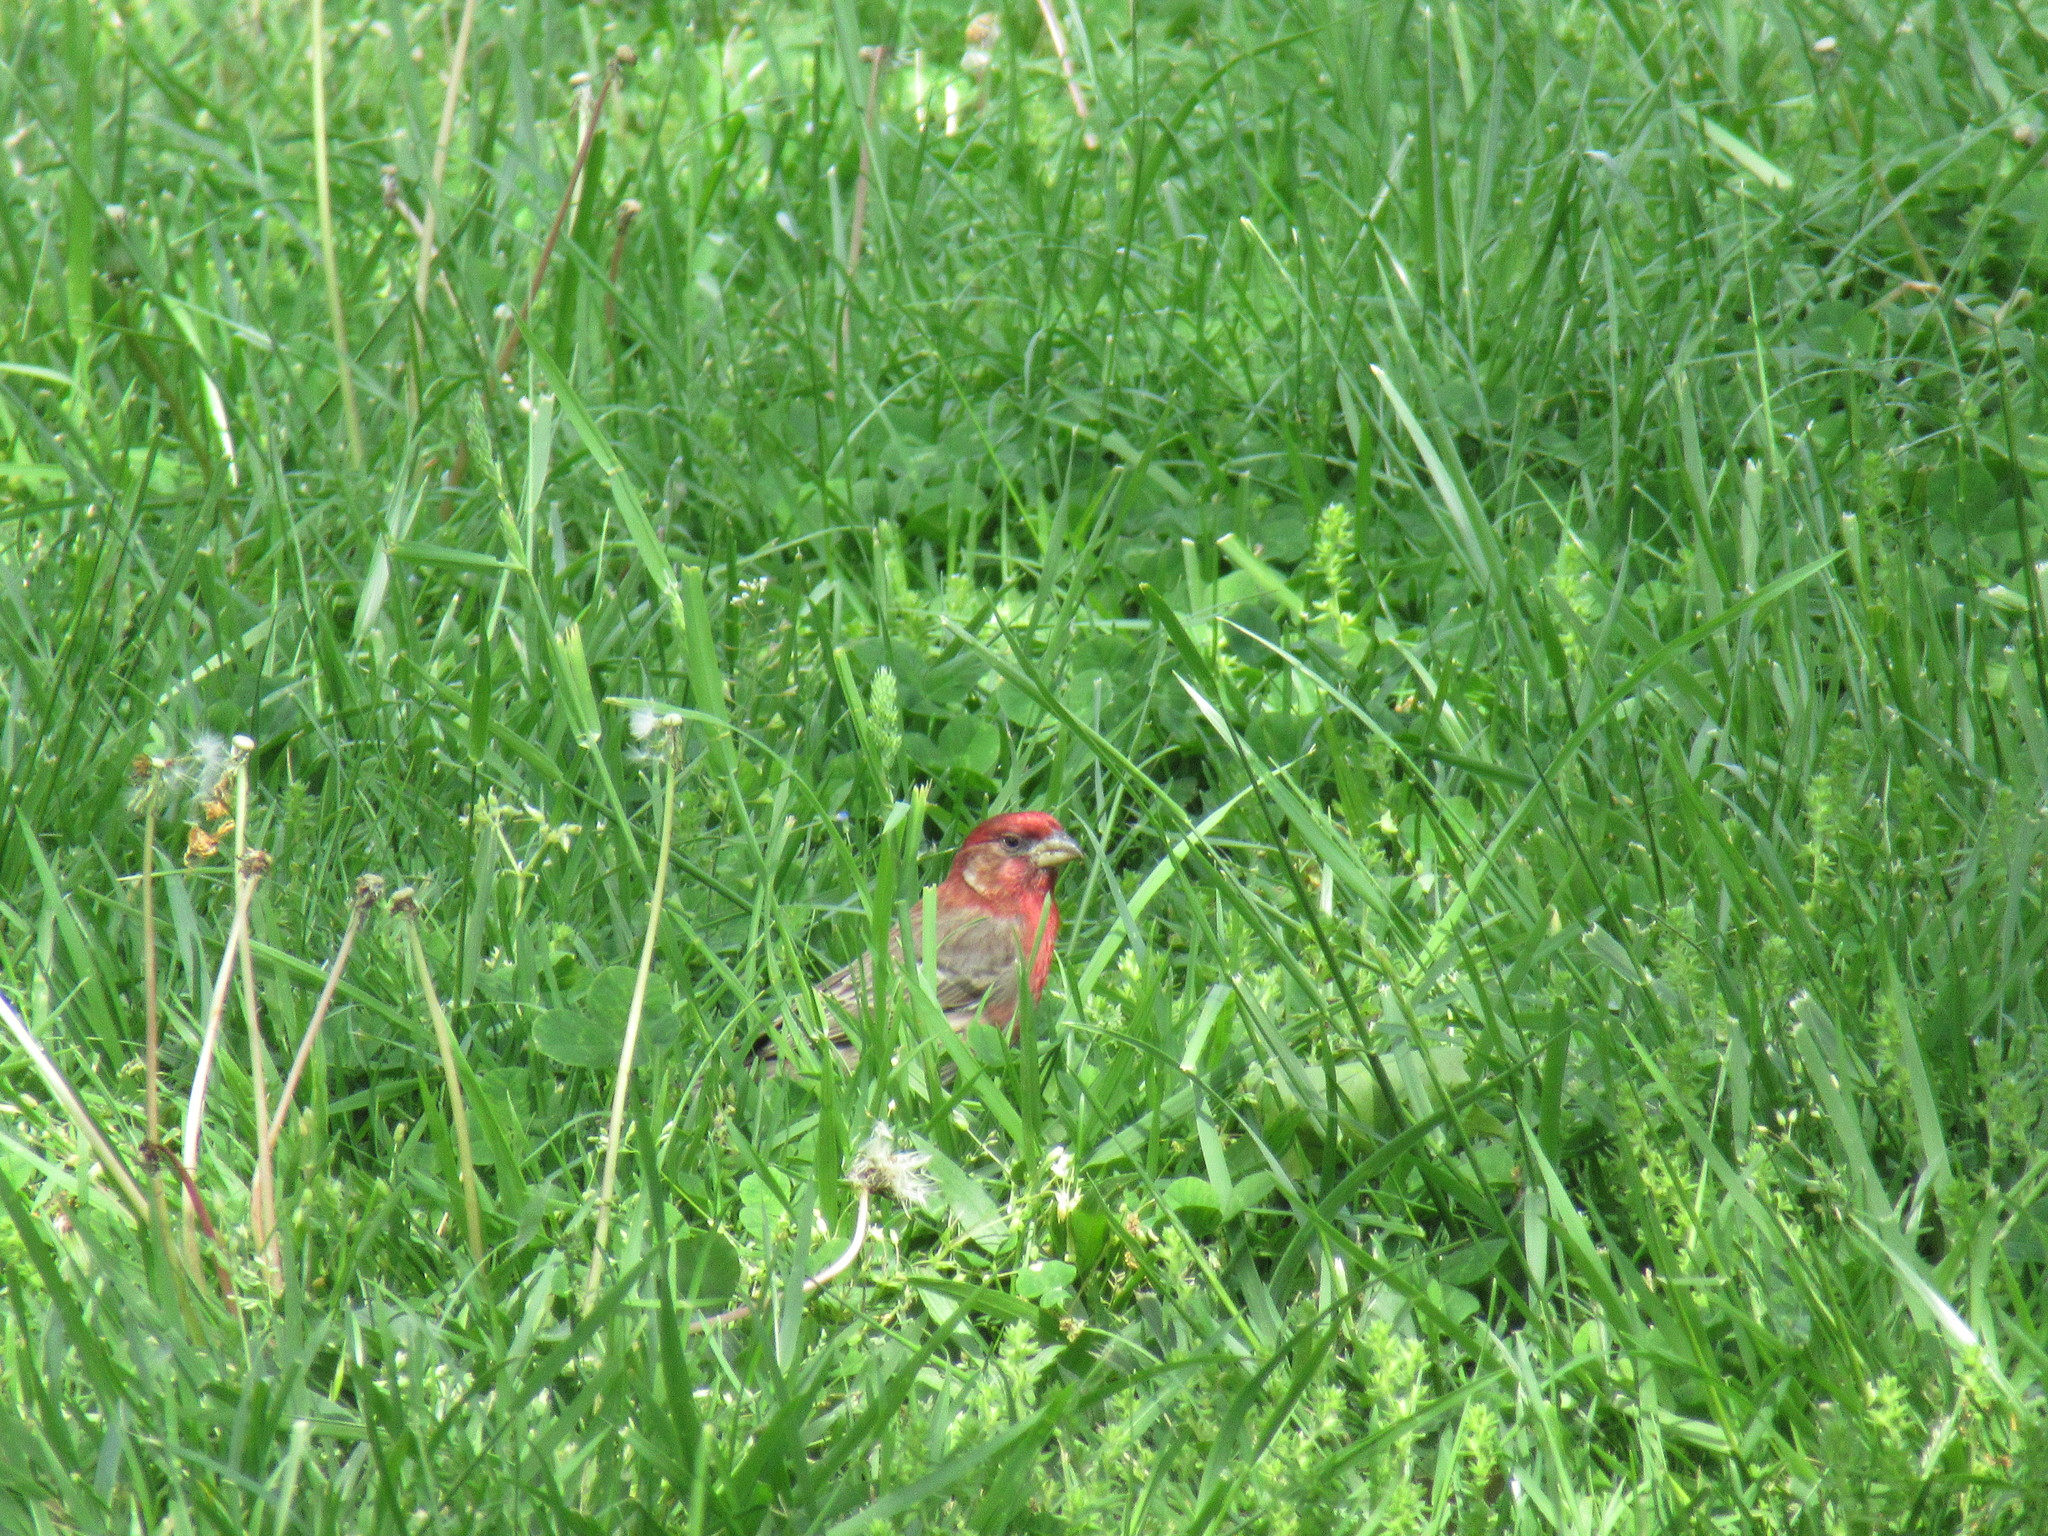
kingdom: Animalia
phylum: Chordata
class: Aves
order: Passeriformes
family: Fringillidae
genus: Haemorhous
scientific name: Haemorhous mexicanus
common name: House finch
